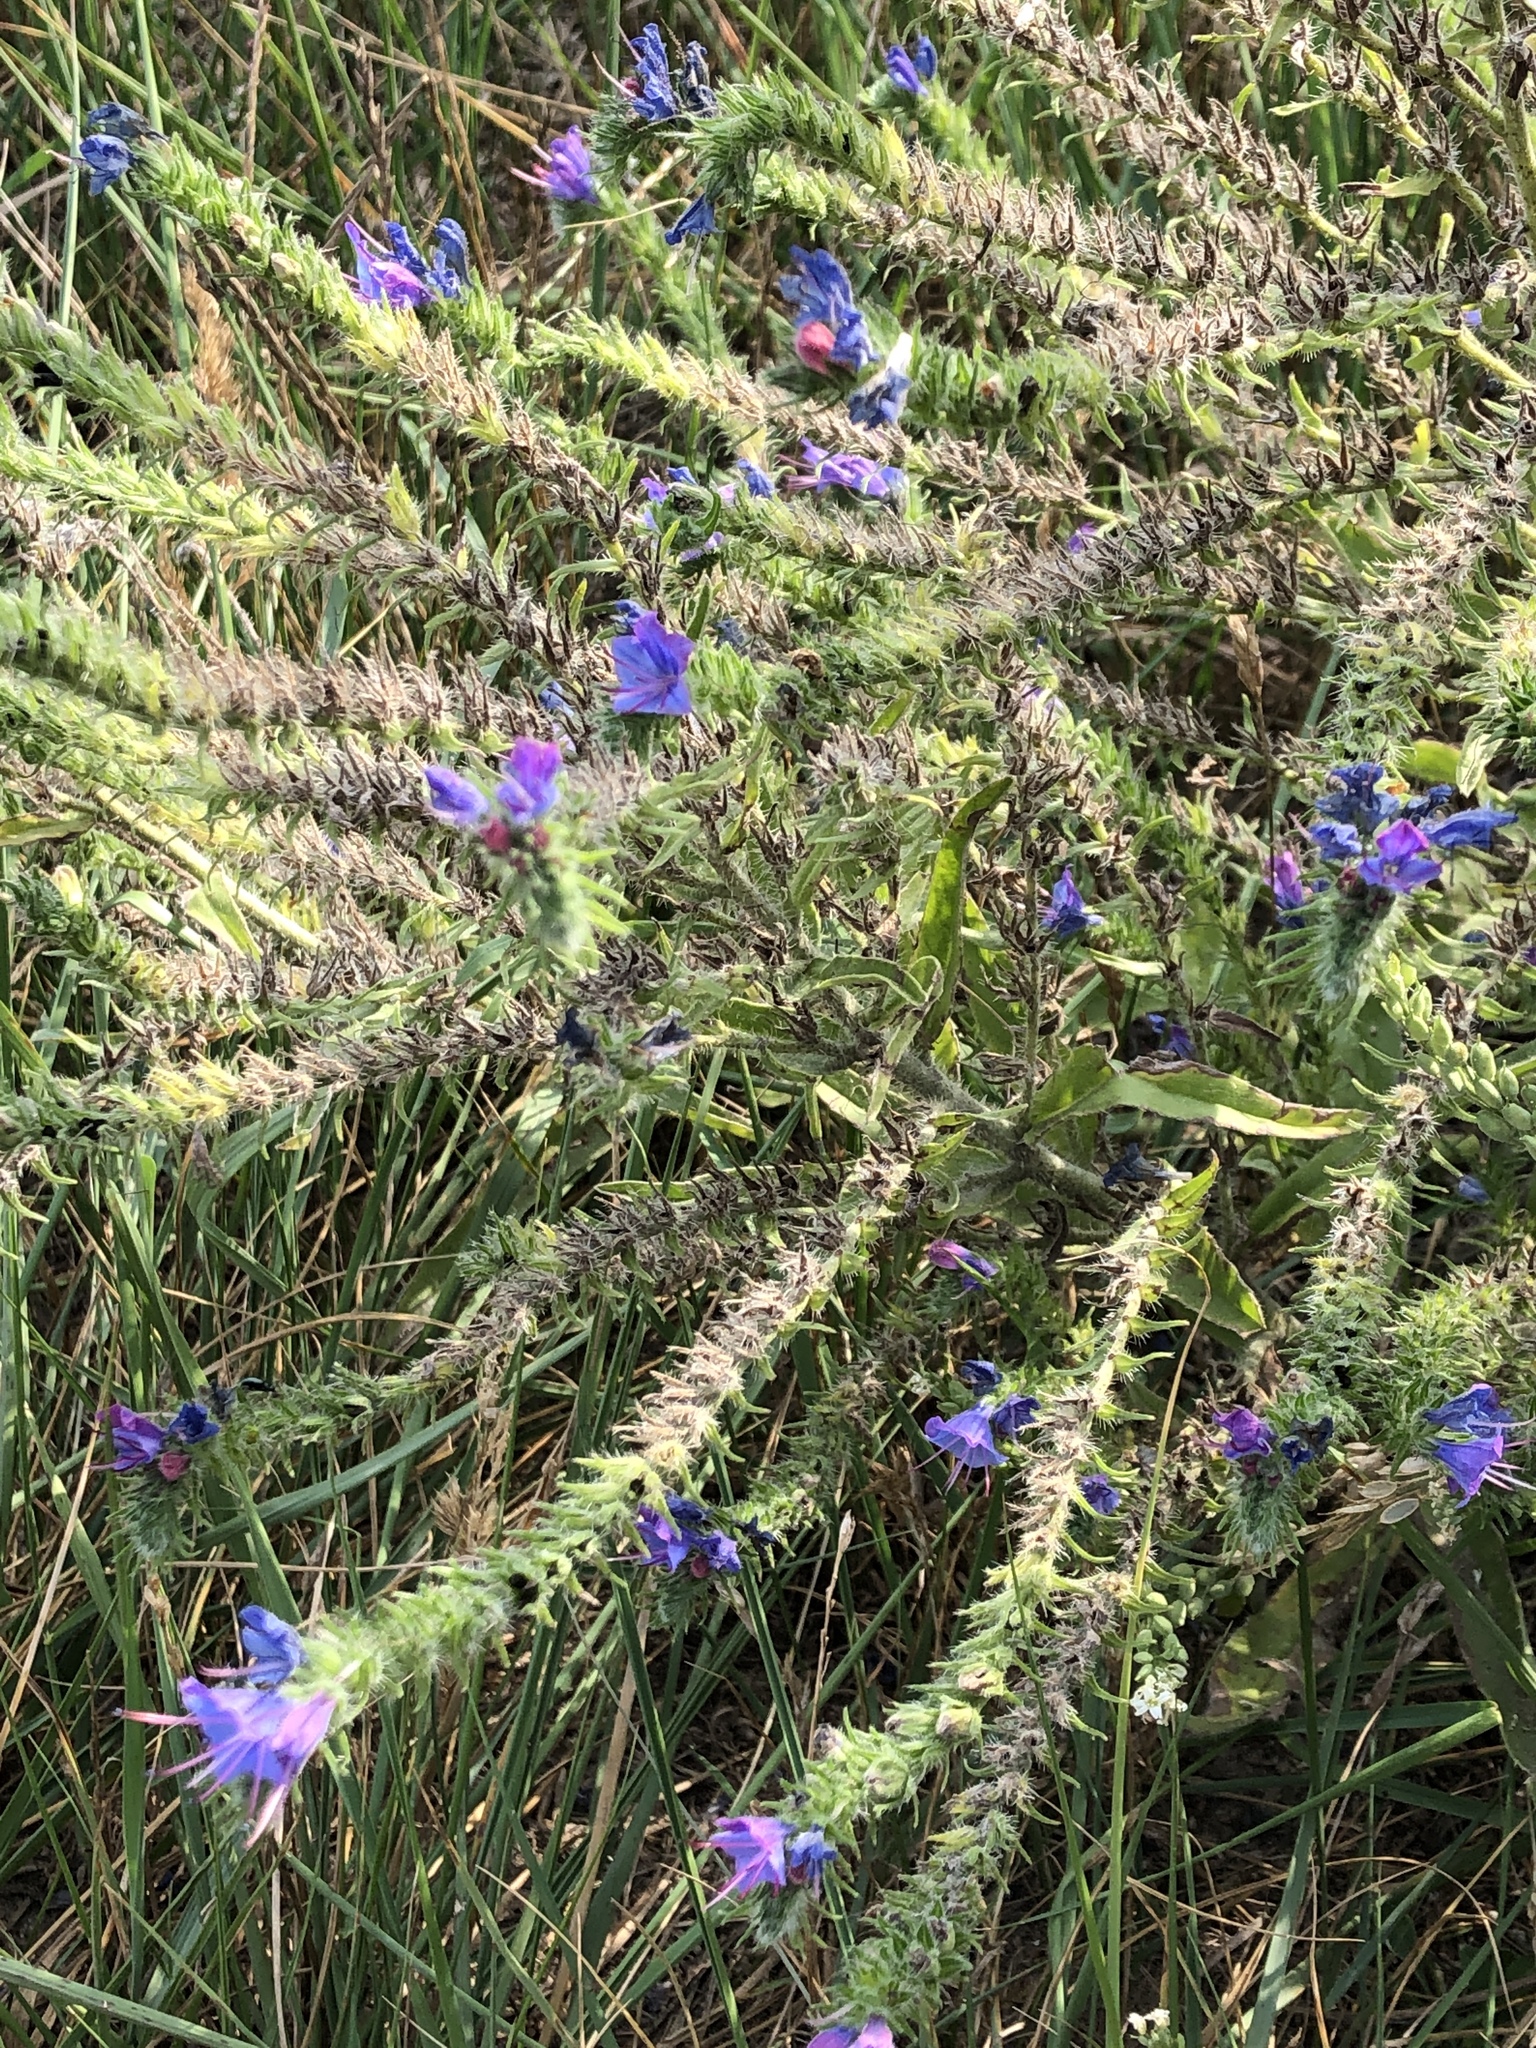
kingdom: Plantae
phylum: Tracheophyta
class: Magnoliopsida
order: Boraginales
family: Boraginaceae
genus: Echium
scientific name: Echium vulgare
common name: Common viper's bugloss
